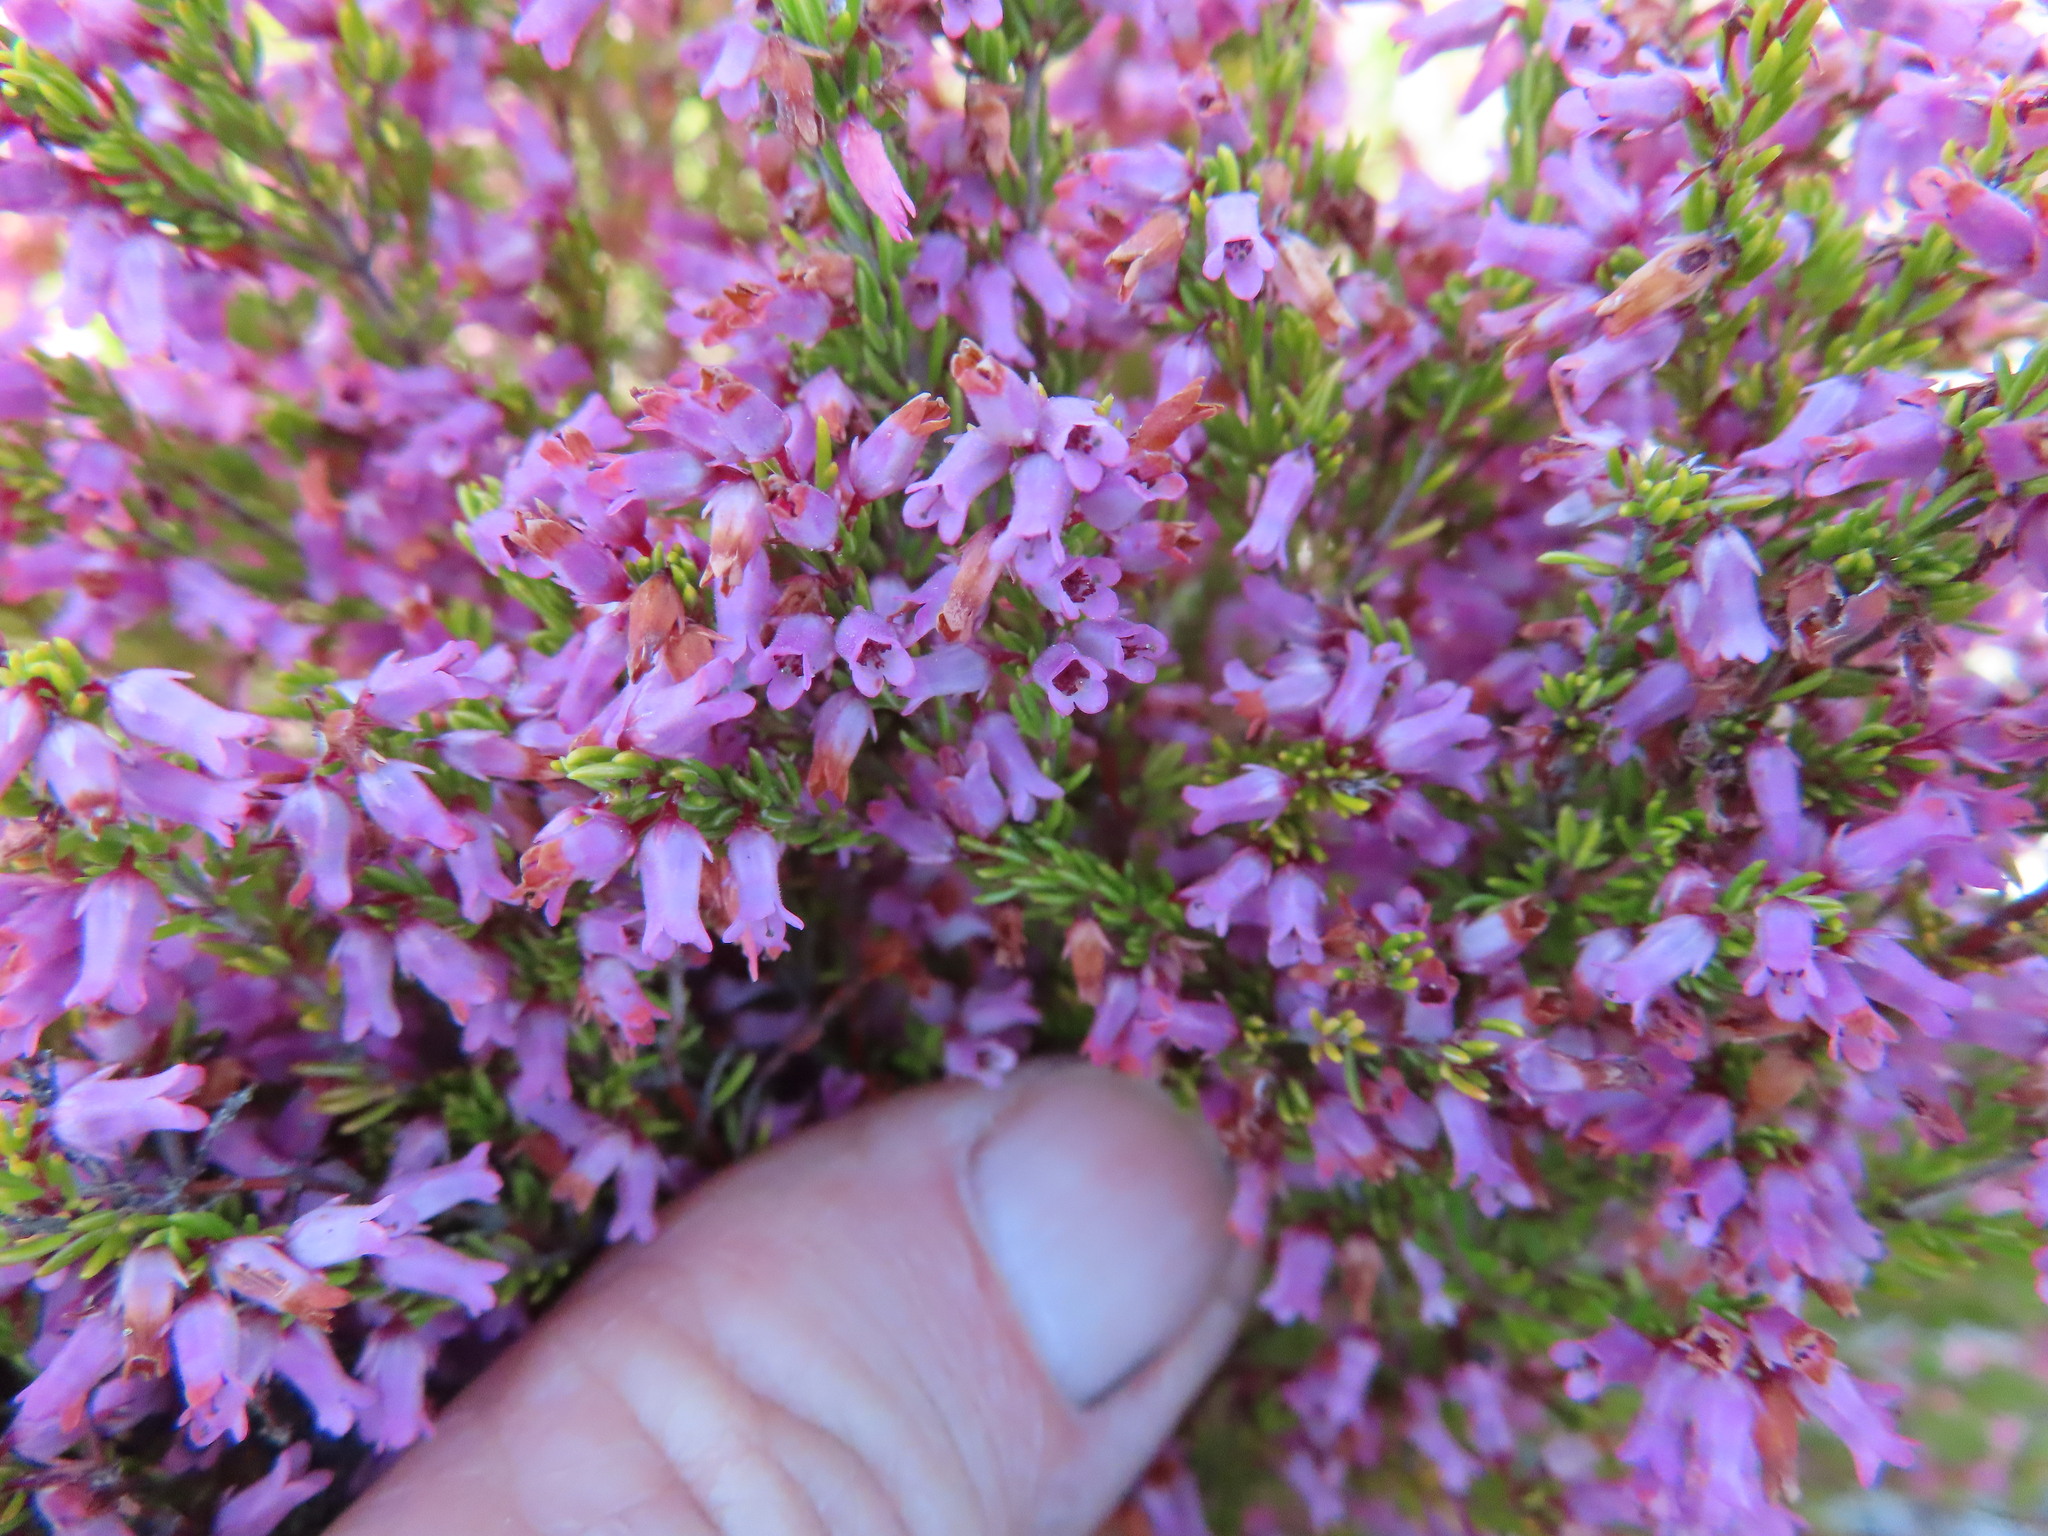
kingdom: Plantae
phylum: Tracheophyta
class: Magnoliopsida
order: Ericales
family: Ericaceae
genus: Erica
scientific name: Erica intervallaris
